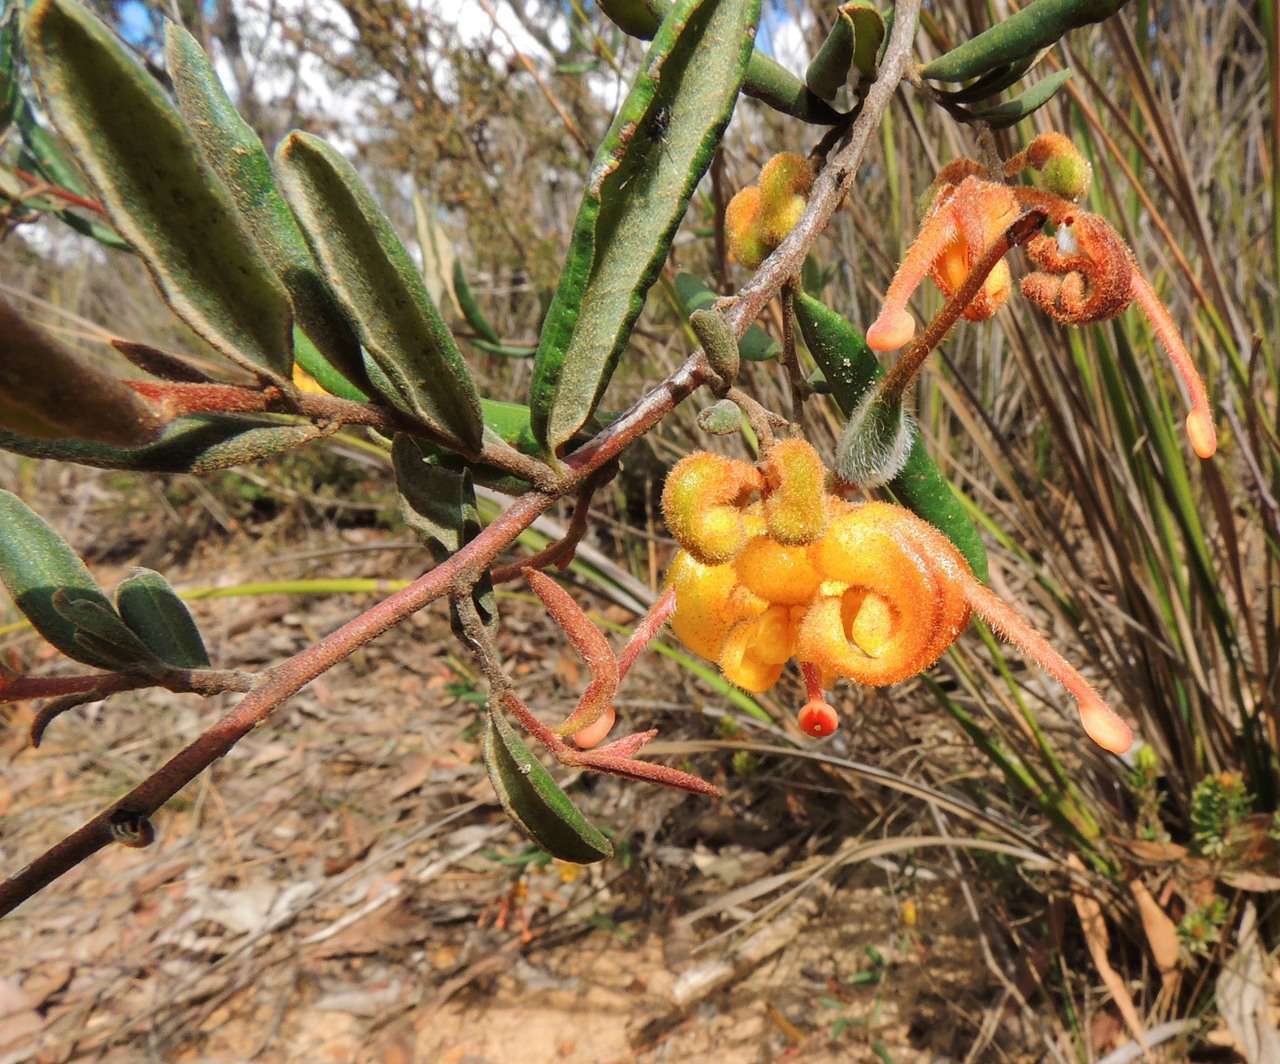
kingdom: Plantae
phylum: Tracheophyta
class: Magnoliopsida
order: Proteales
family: Proteaceae
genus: Grevillea
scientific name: Grevillea chrysophaea
